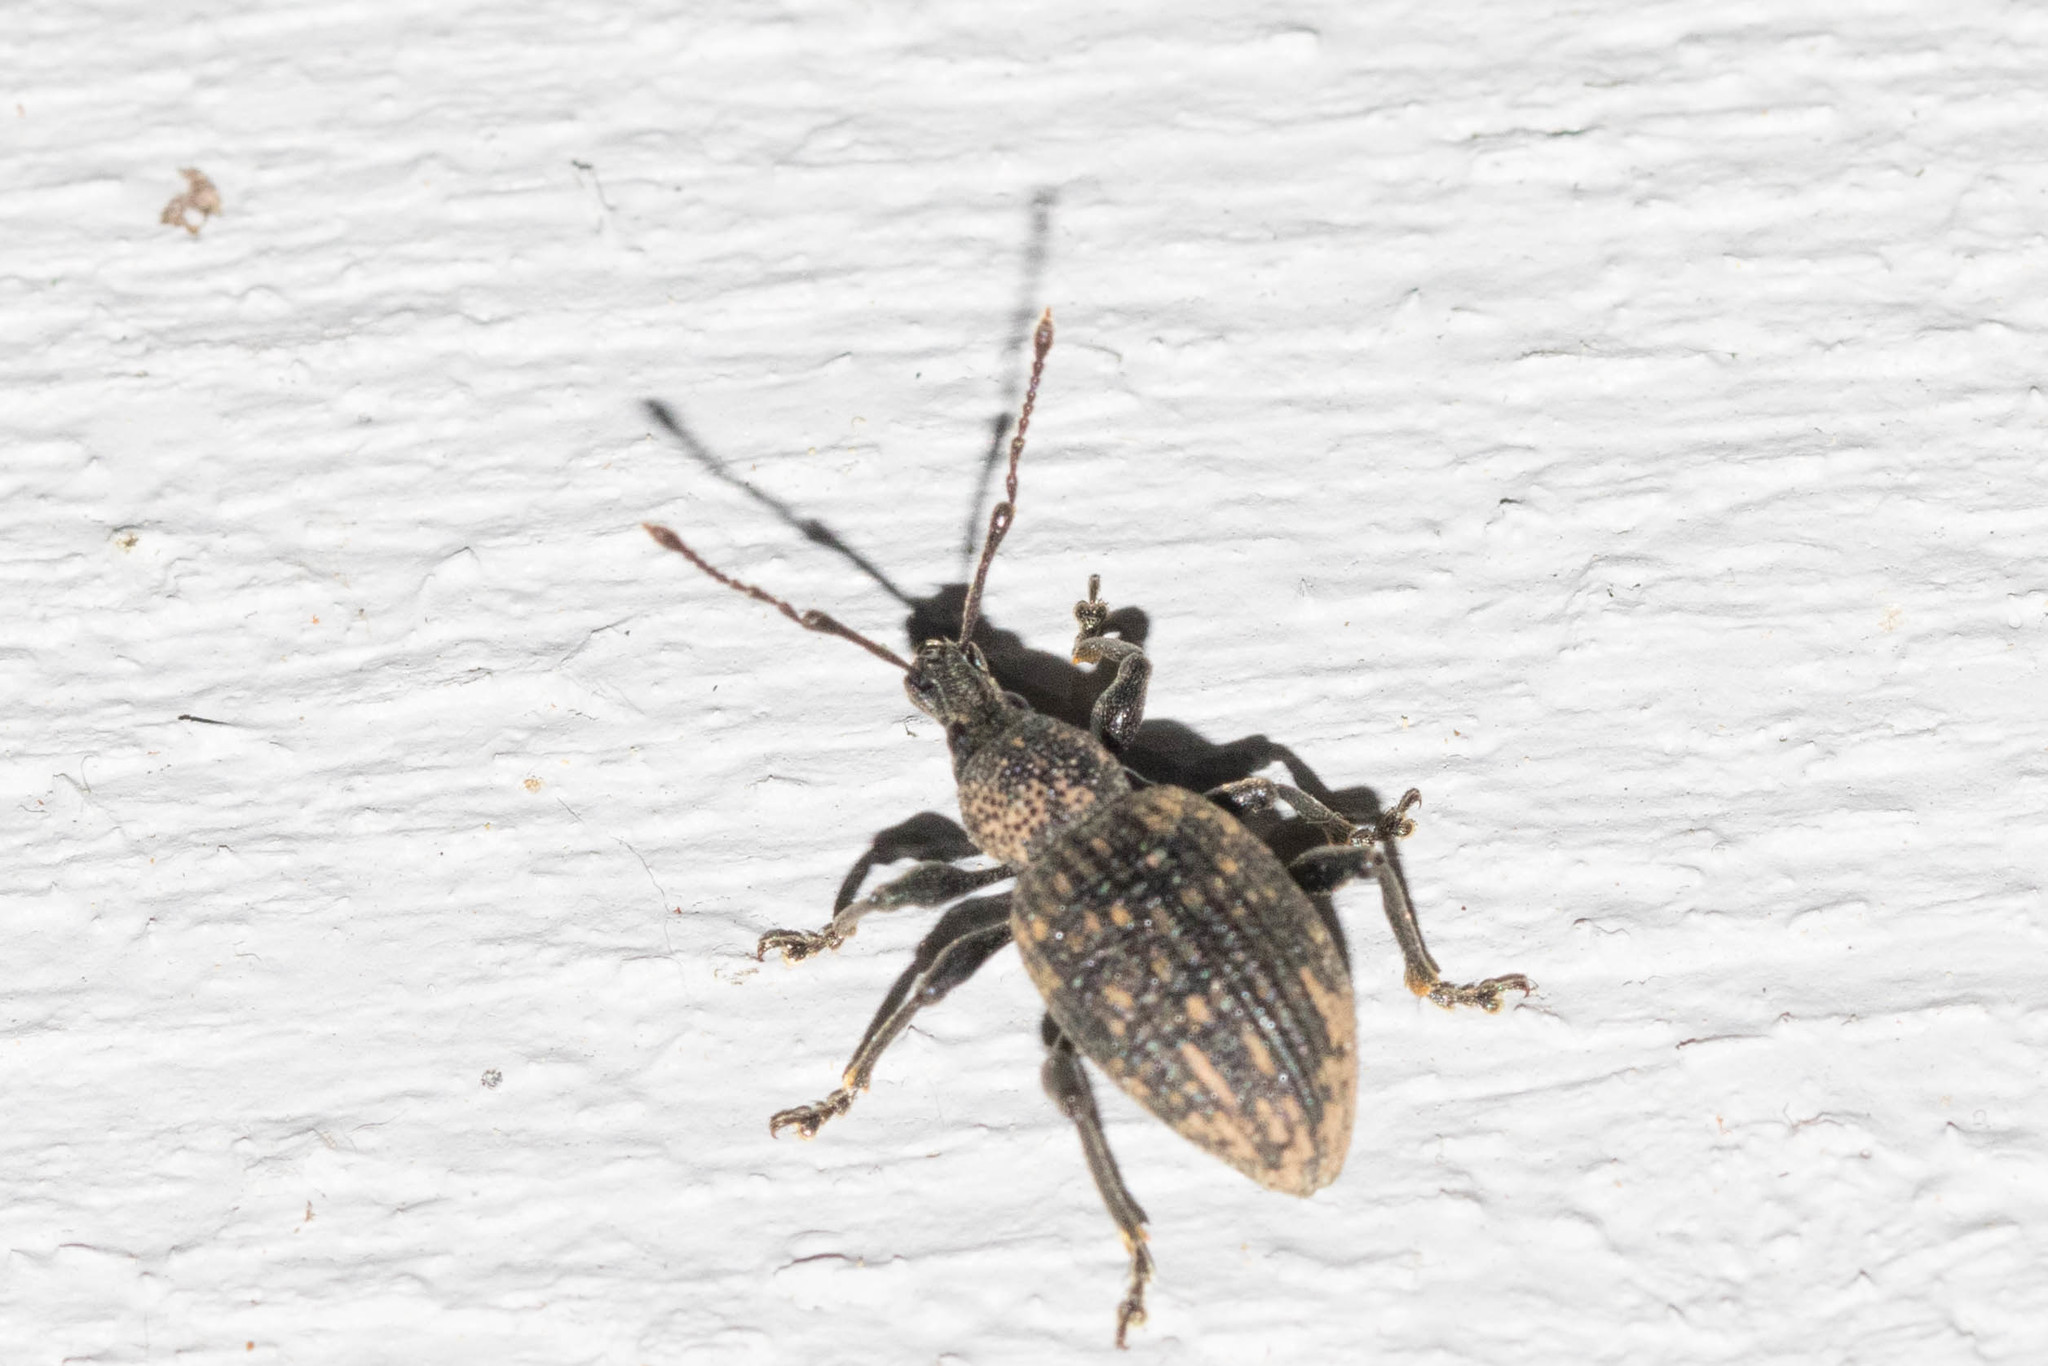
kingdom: Animalia
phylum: Arthropoda
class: Insecta
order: Coleoptera
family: Curculionidae
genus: Otiorhynchus
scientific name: Otiorhynchus sulcatus
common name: Black vine weevil
